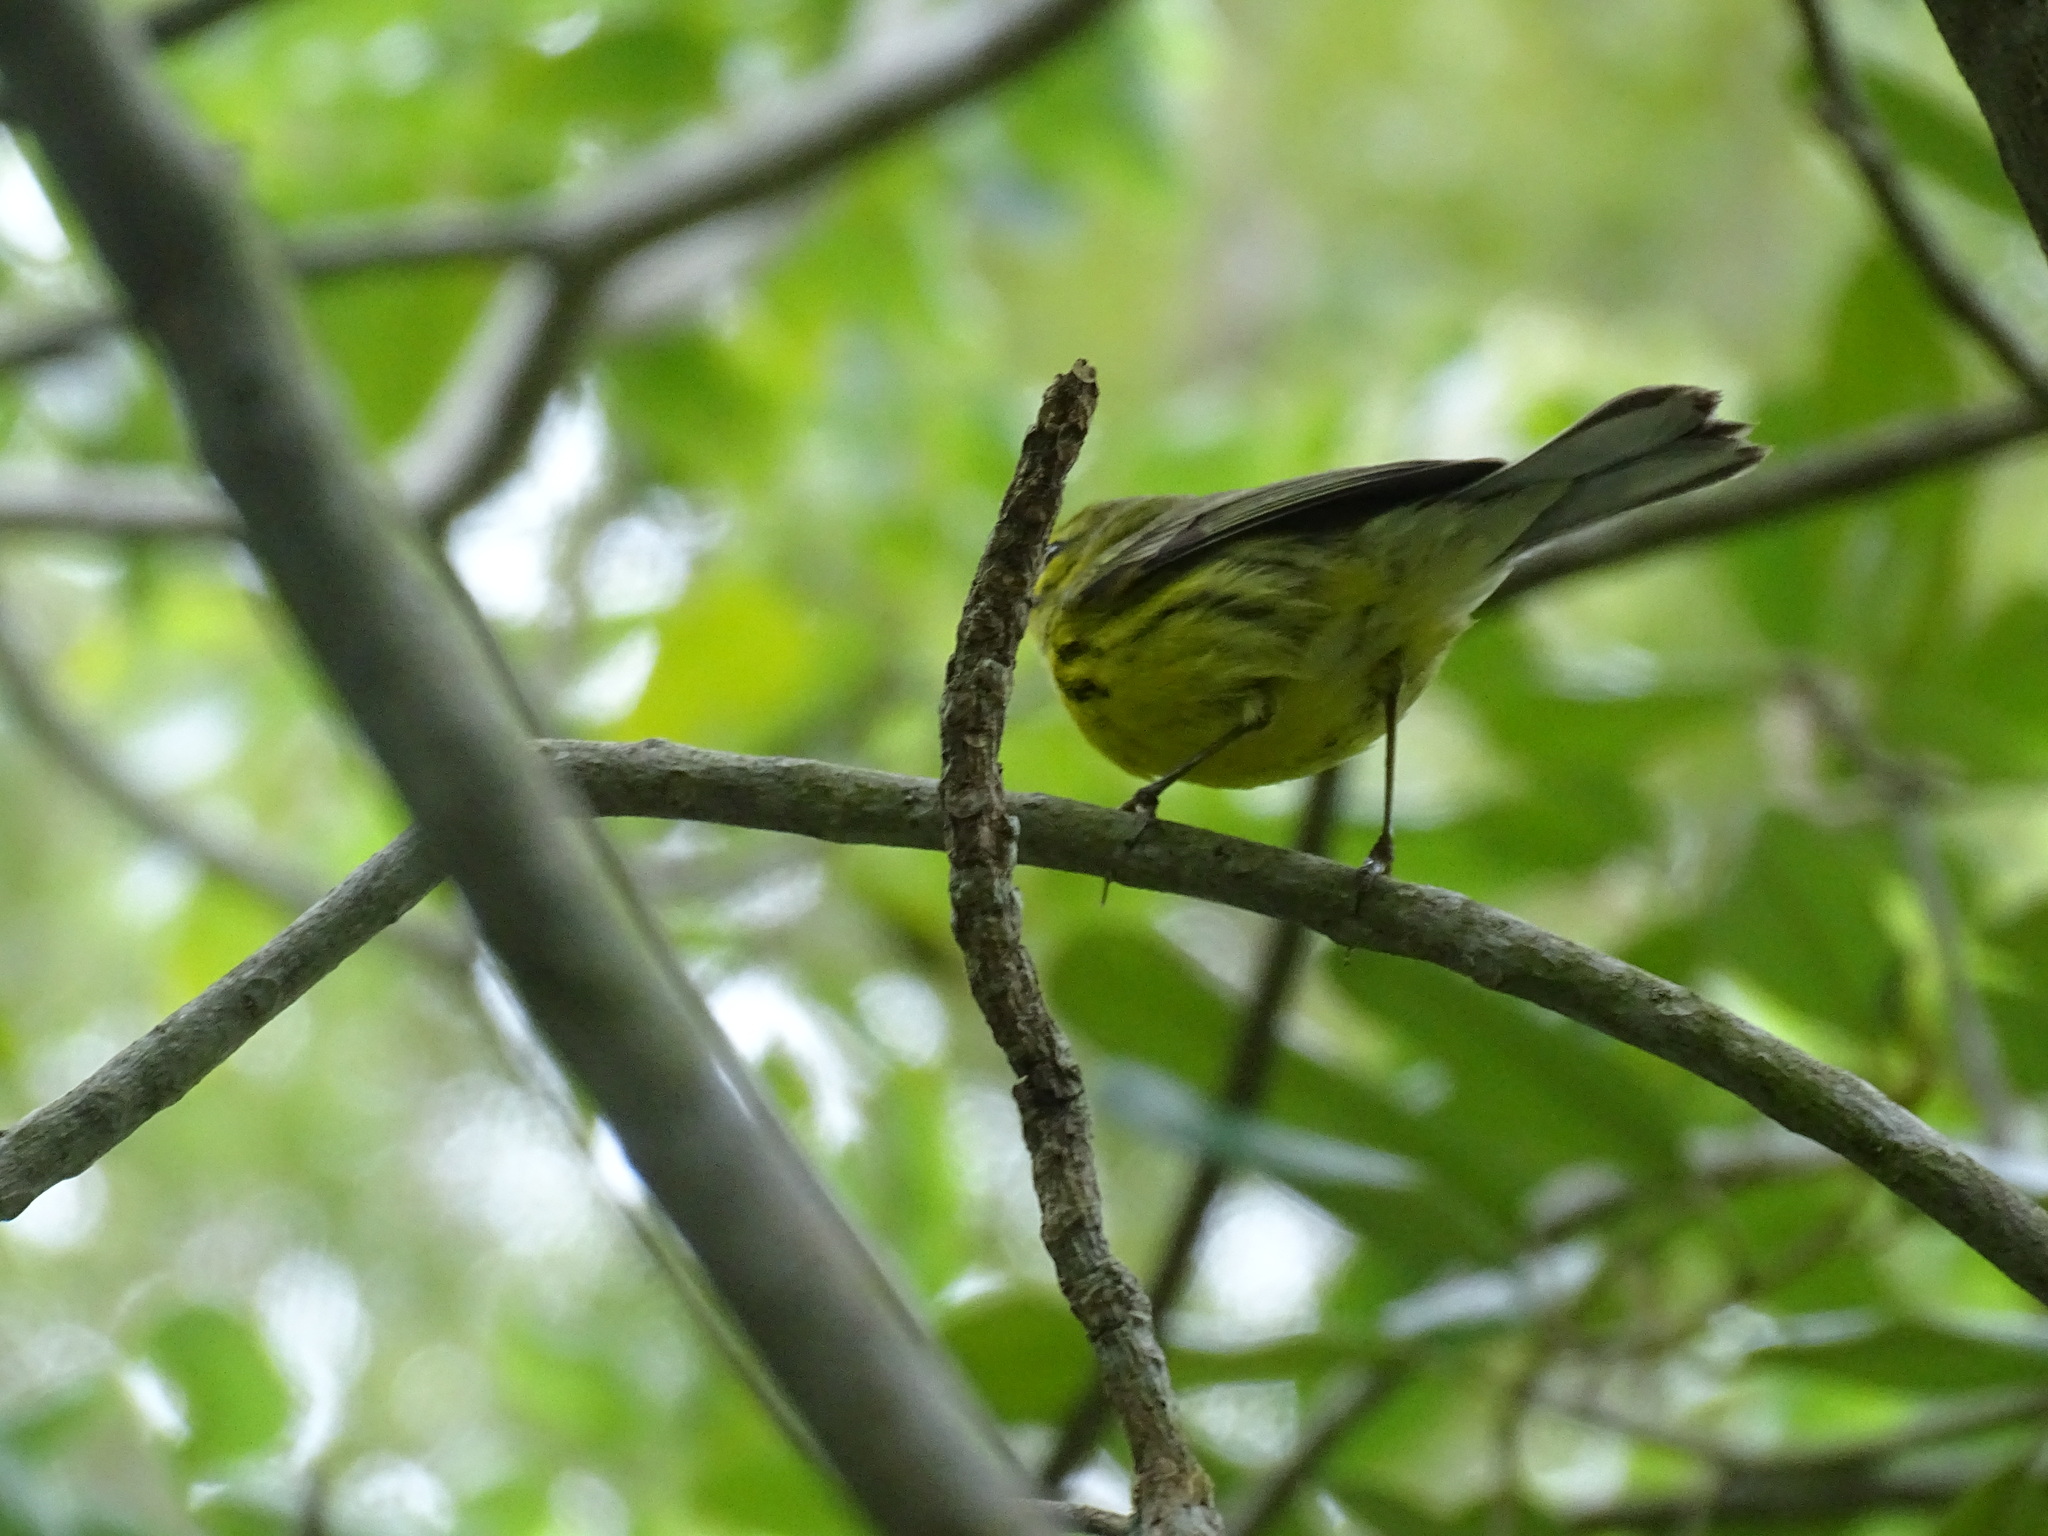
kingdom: Animalia
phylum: Chordata
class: Aves
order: Passeriformes
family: Parulidae
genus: Setophaga
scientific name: Setophaga discolor
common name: Prairie warbler
